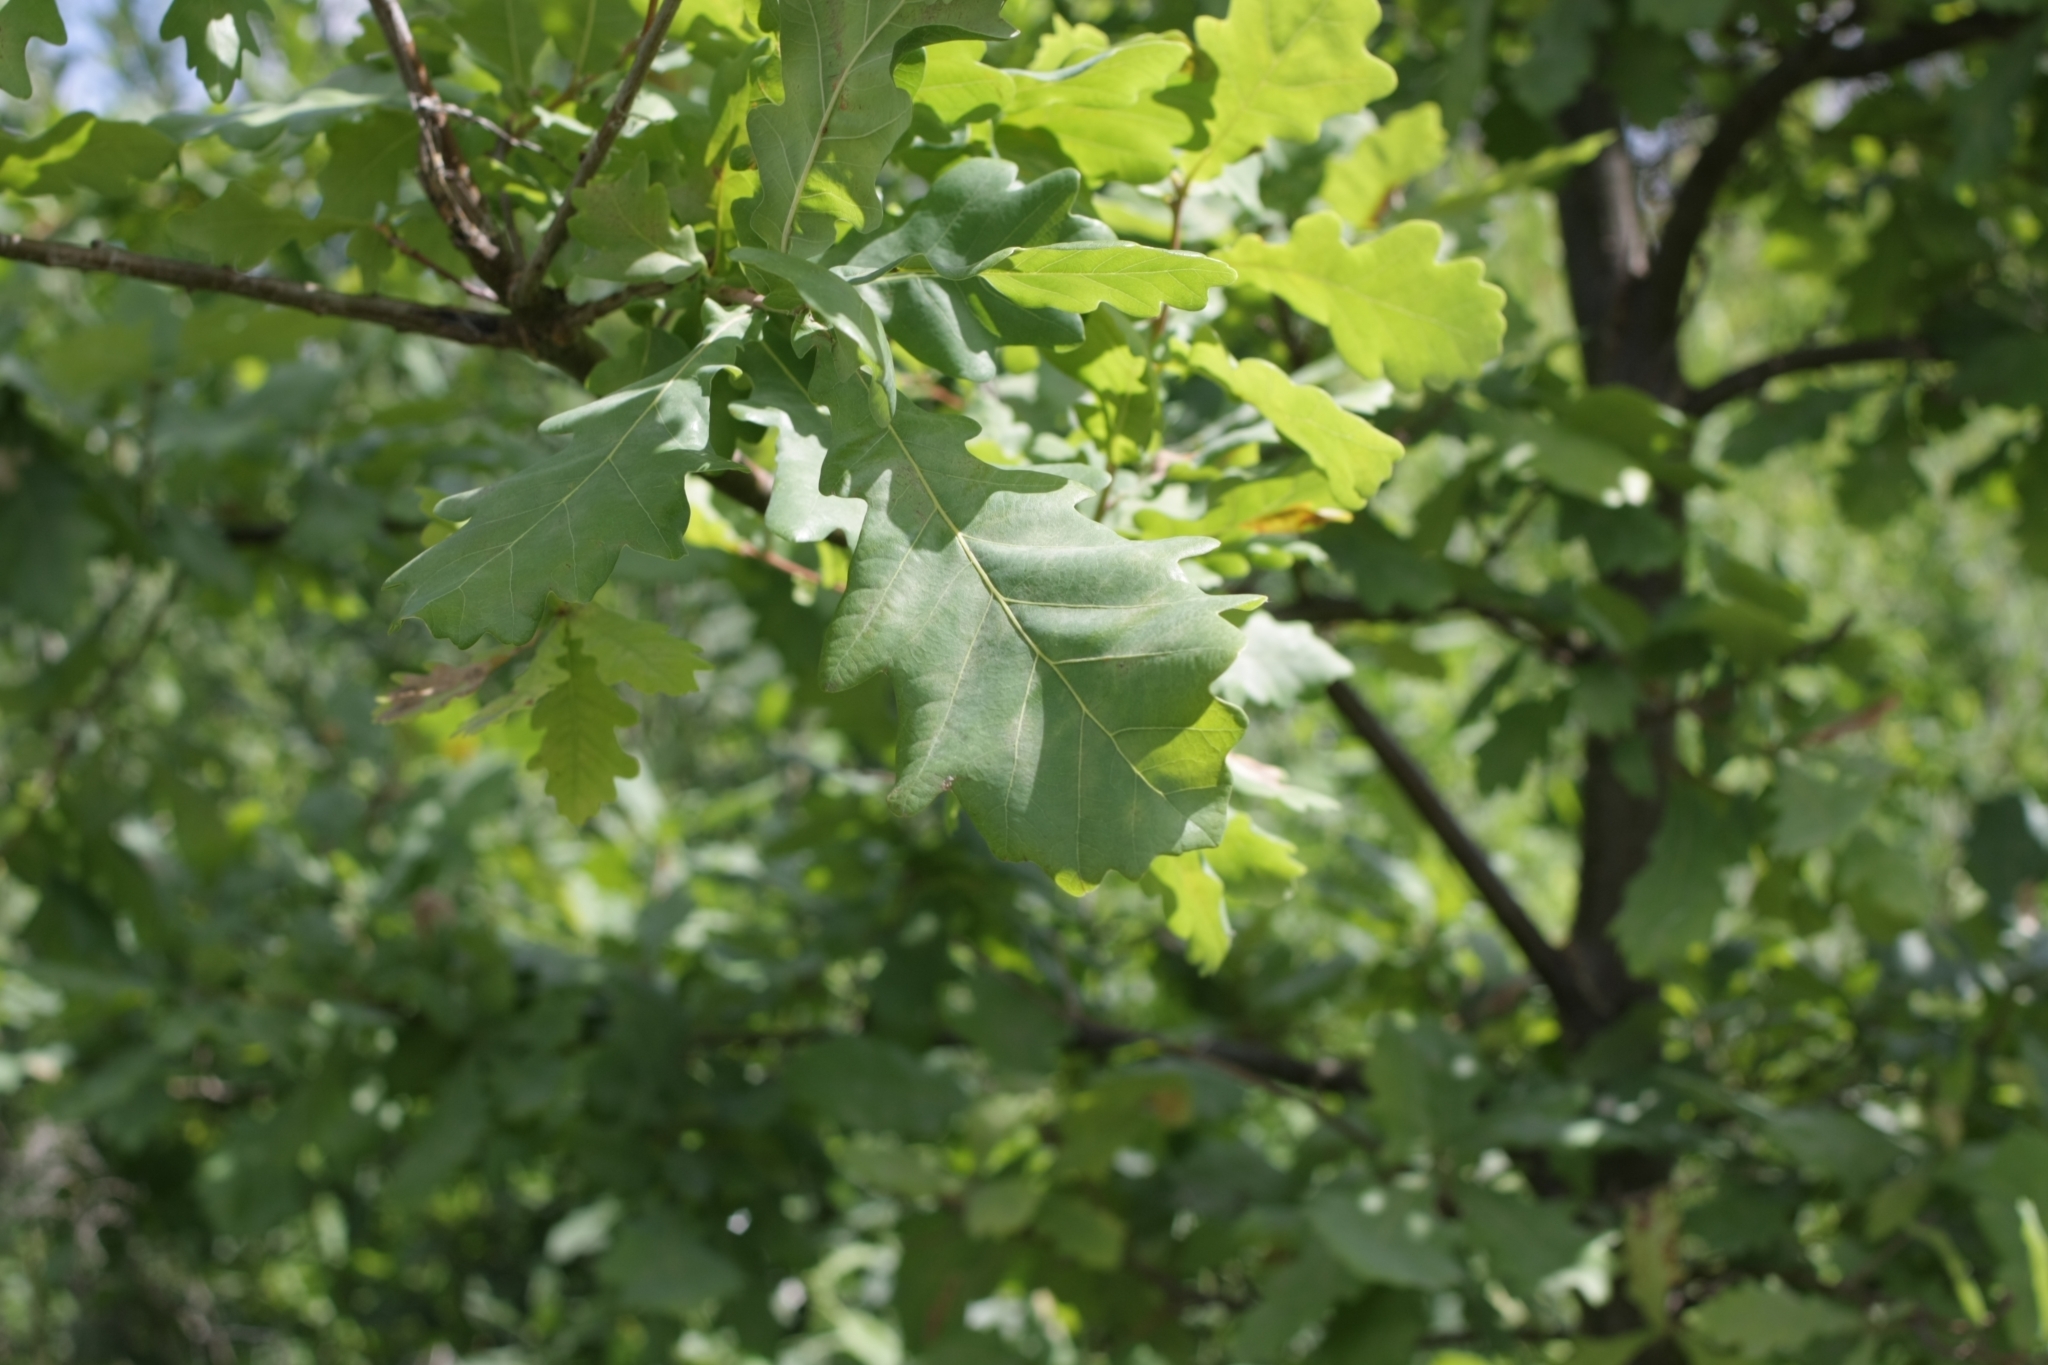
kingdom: Plantae
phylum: Tracheophyta
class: Magnoliopsida
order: Fagales
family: Fagaceae
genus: Quercus
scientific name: Quercus robur
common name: Pedunculate oak
